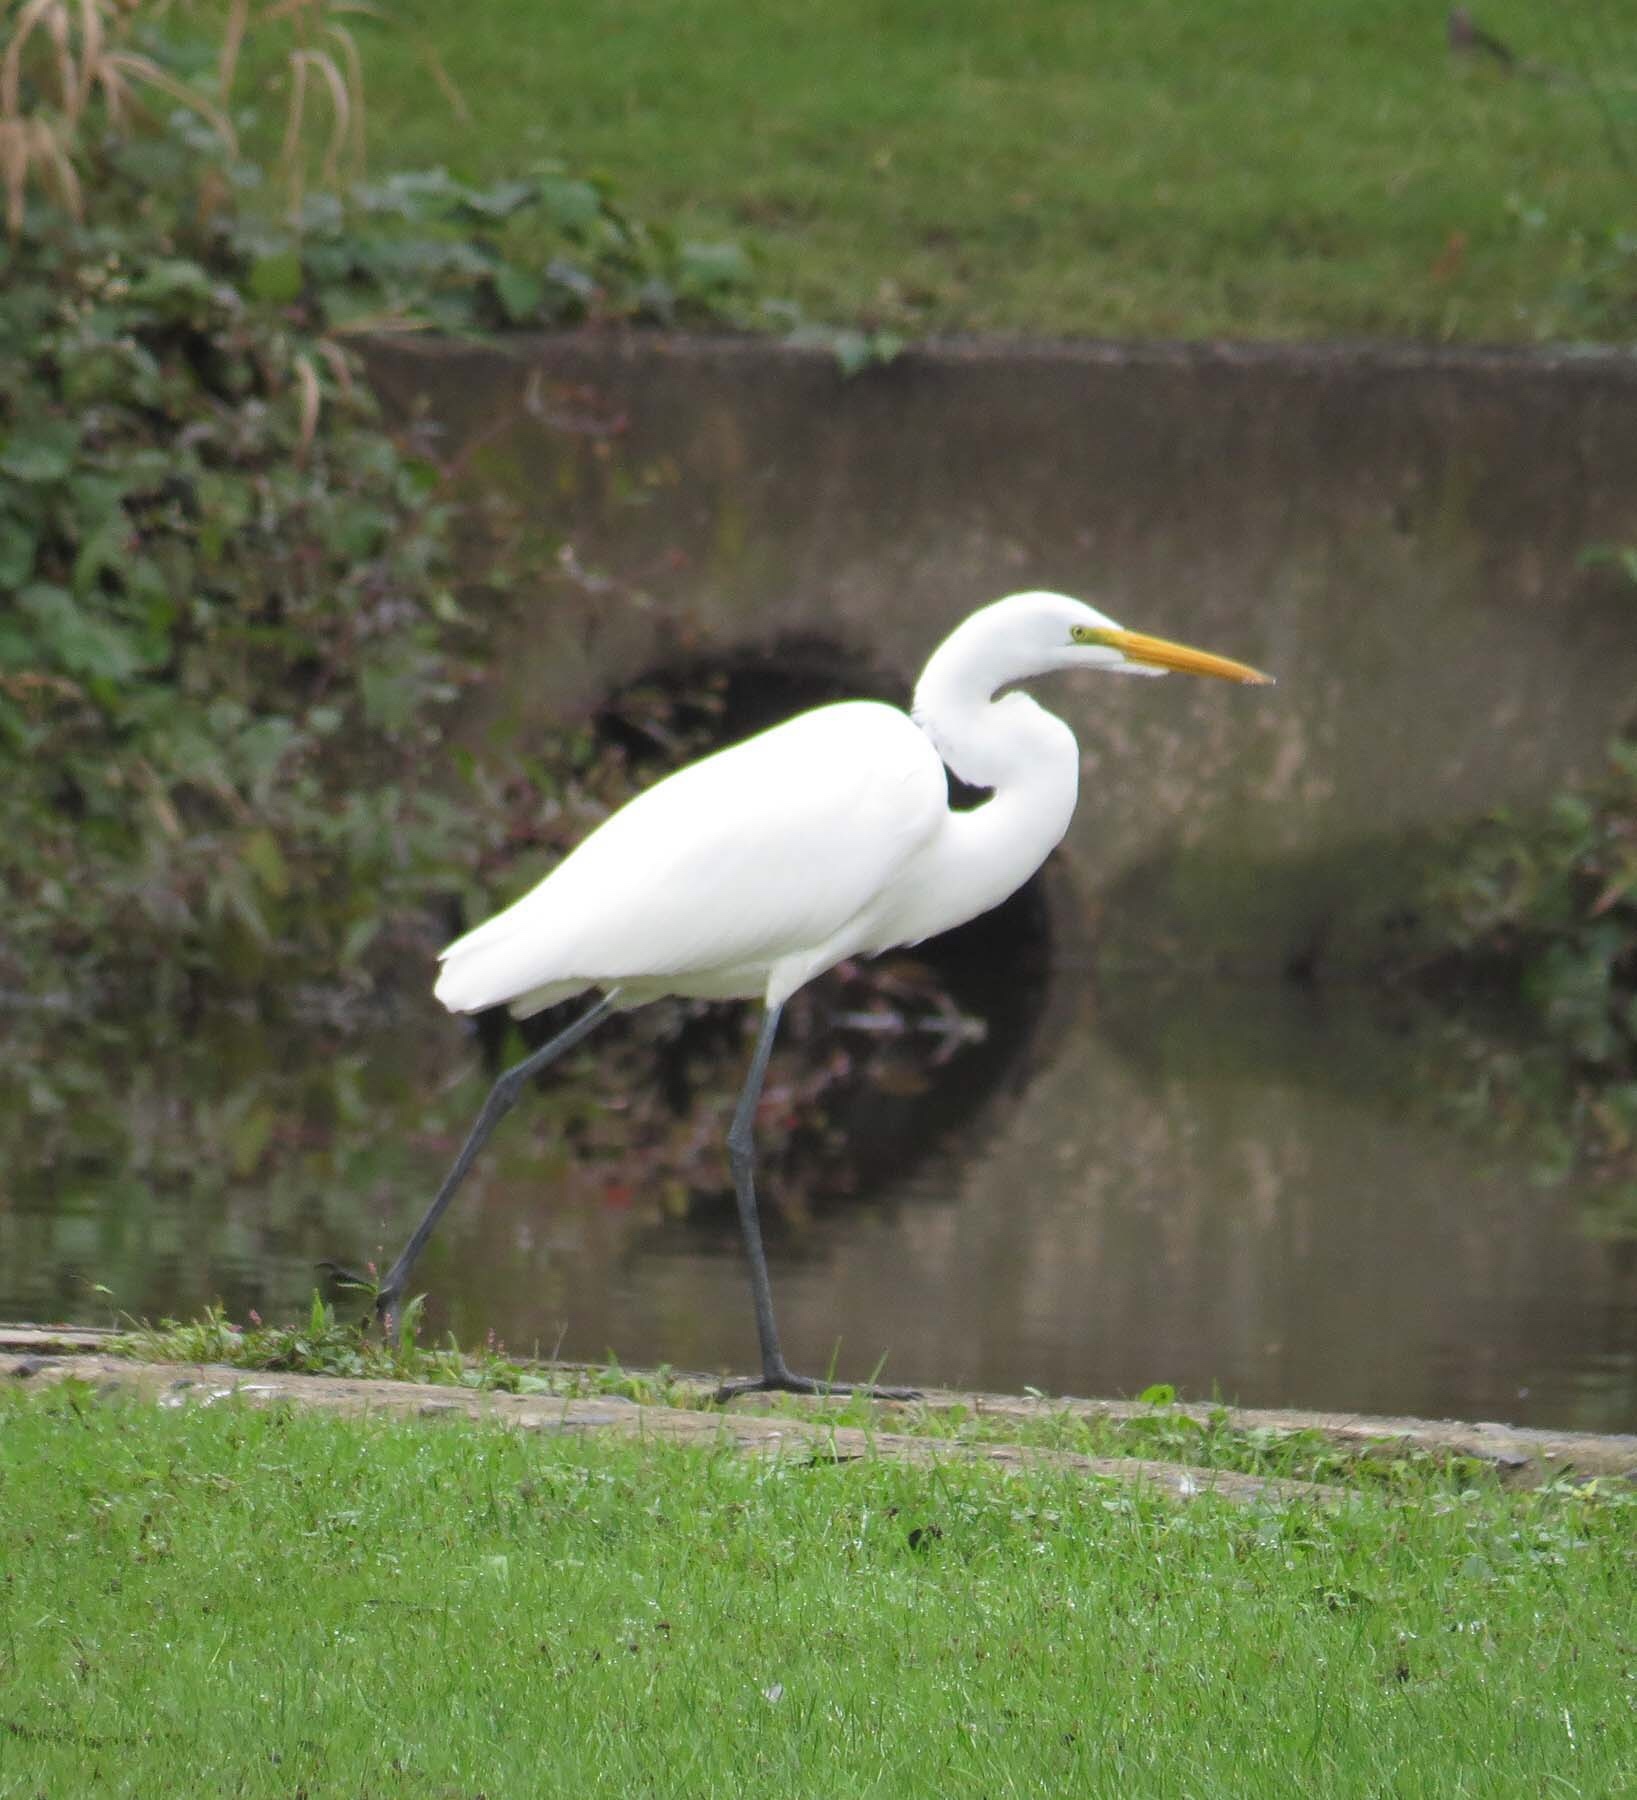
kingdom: Animalia
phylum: Chordata
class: Aves
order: Pelecaniformes
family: Ardeidae
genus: Ardea
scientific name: Ardea alba
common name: Great egret
